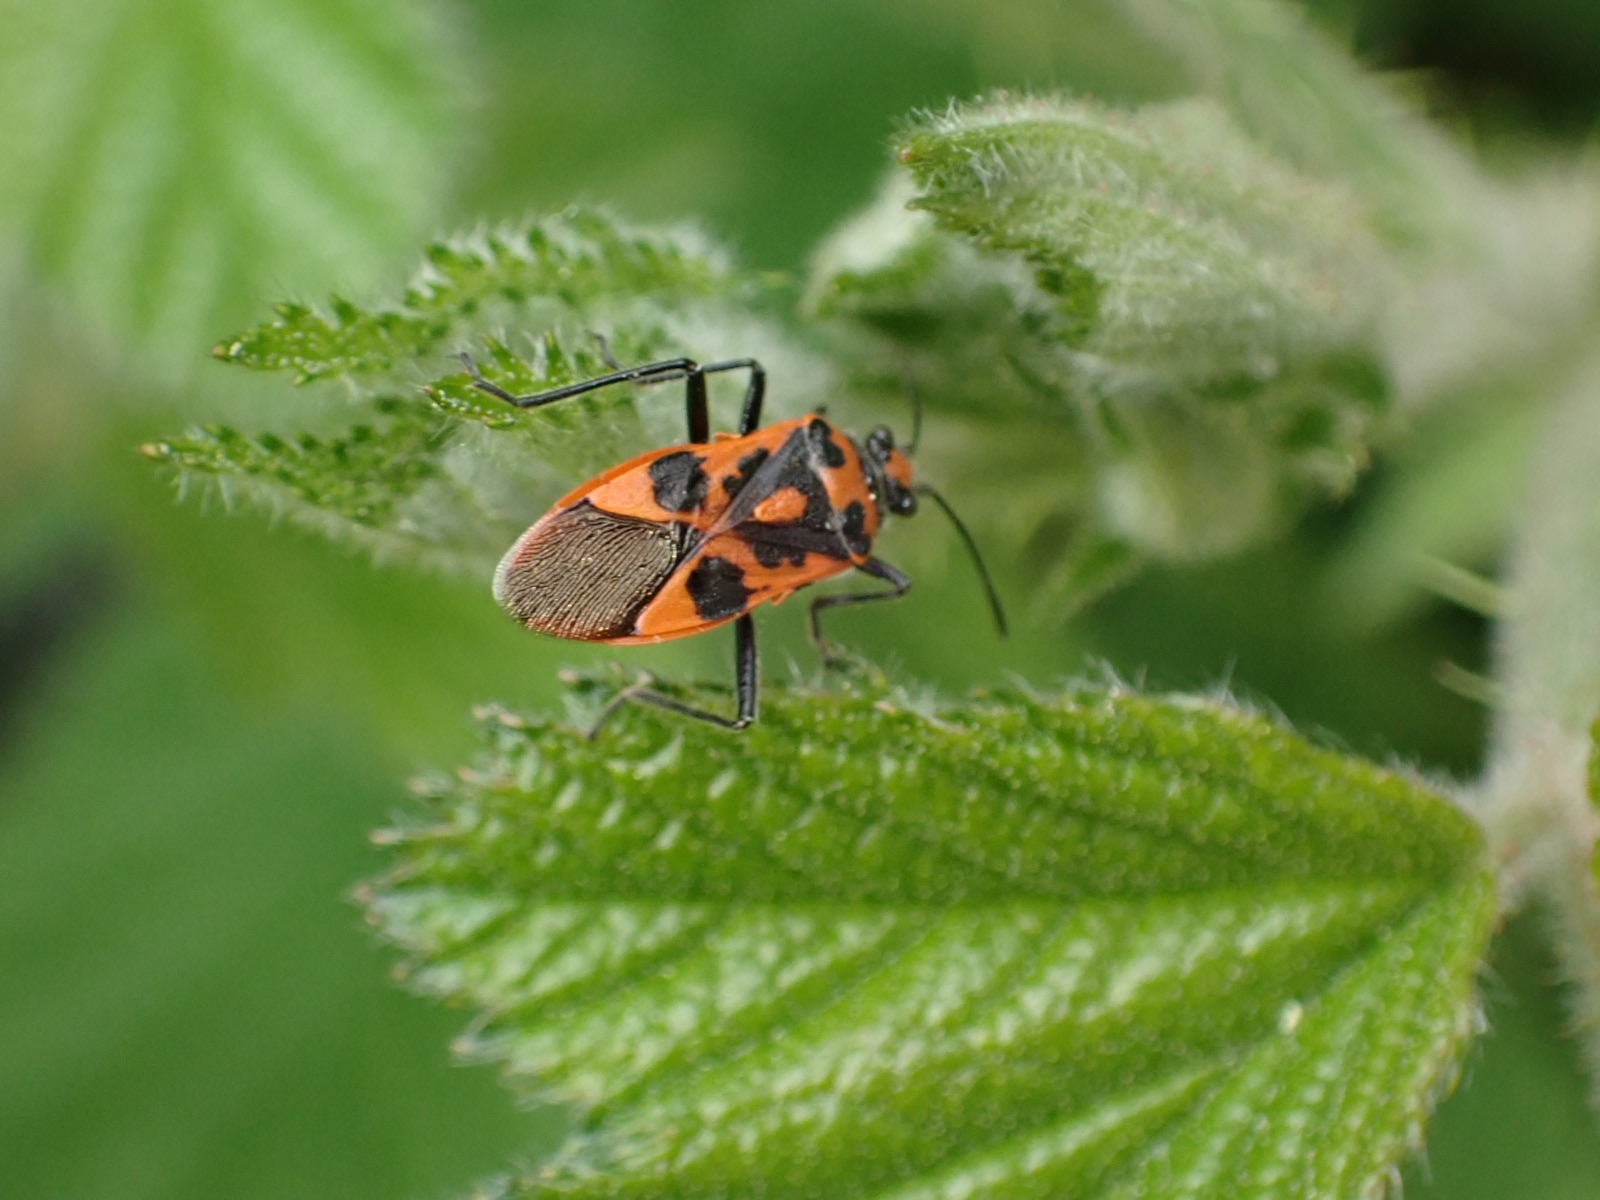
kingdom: Animalia
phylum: Arthropoda
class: Insecta
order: Hemiptera
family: Rhopalidae
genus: Corizus
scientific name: Corizus hyoscyami
